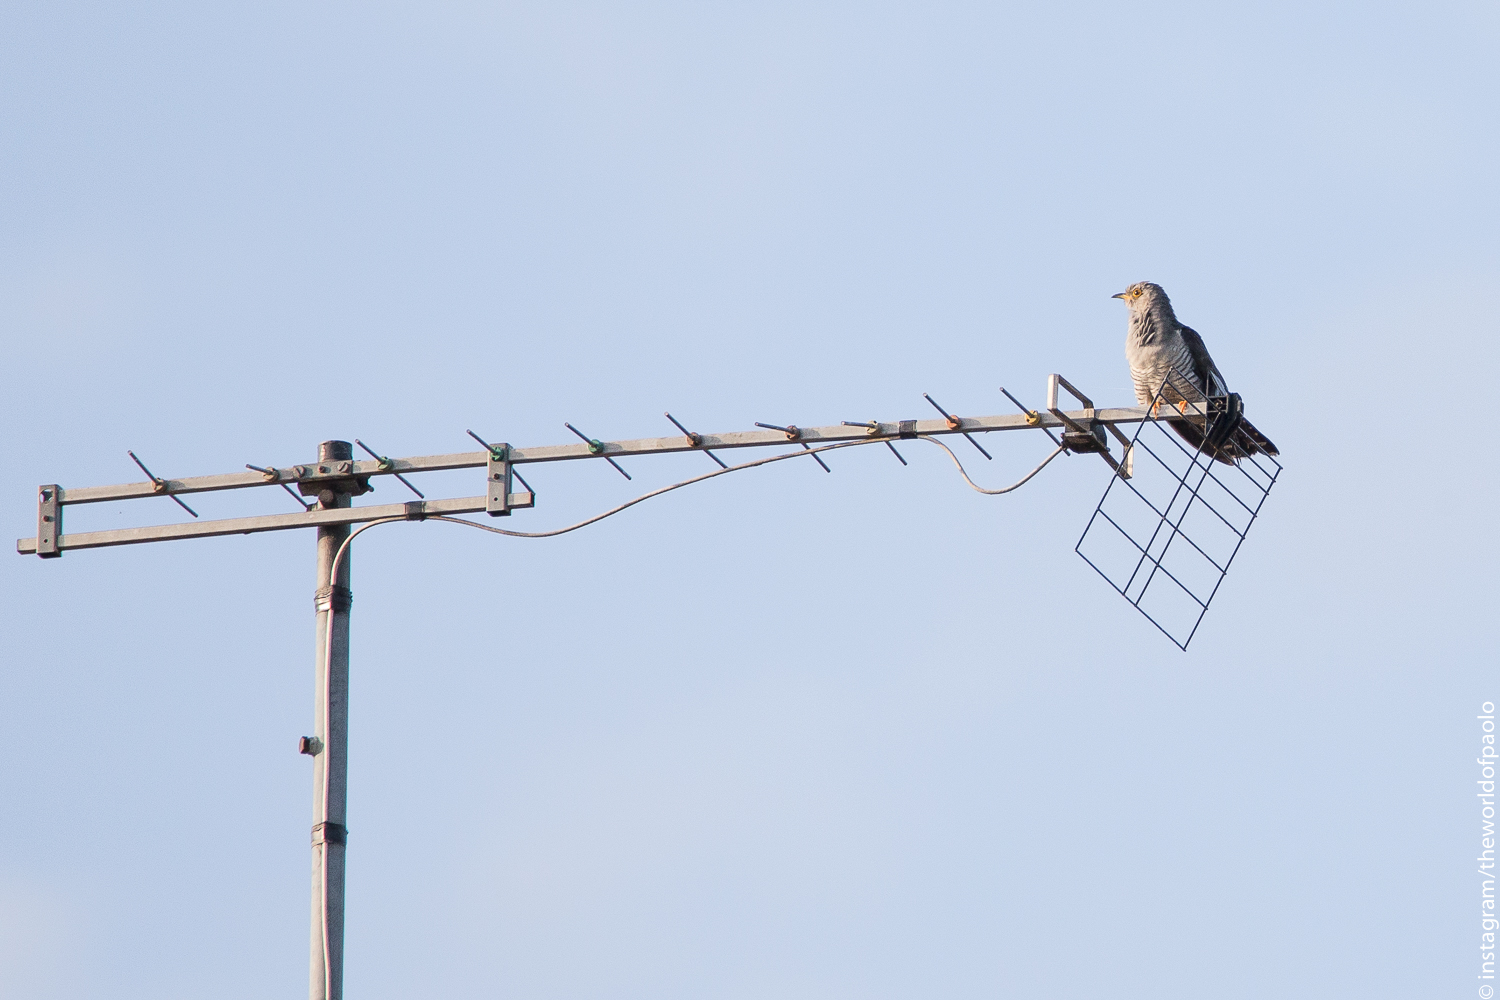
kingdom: Animalia
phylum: Chordata
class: Aves
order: Cuculiformes
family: Cuculidae
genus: Cuculus
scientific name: Cuculus canorus
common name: Common cuckoo
